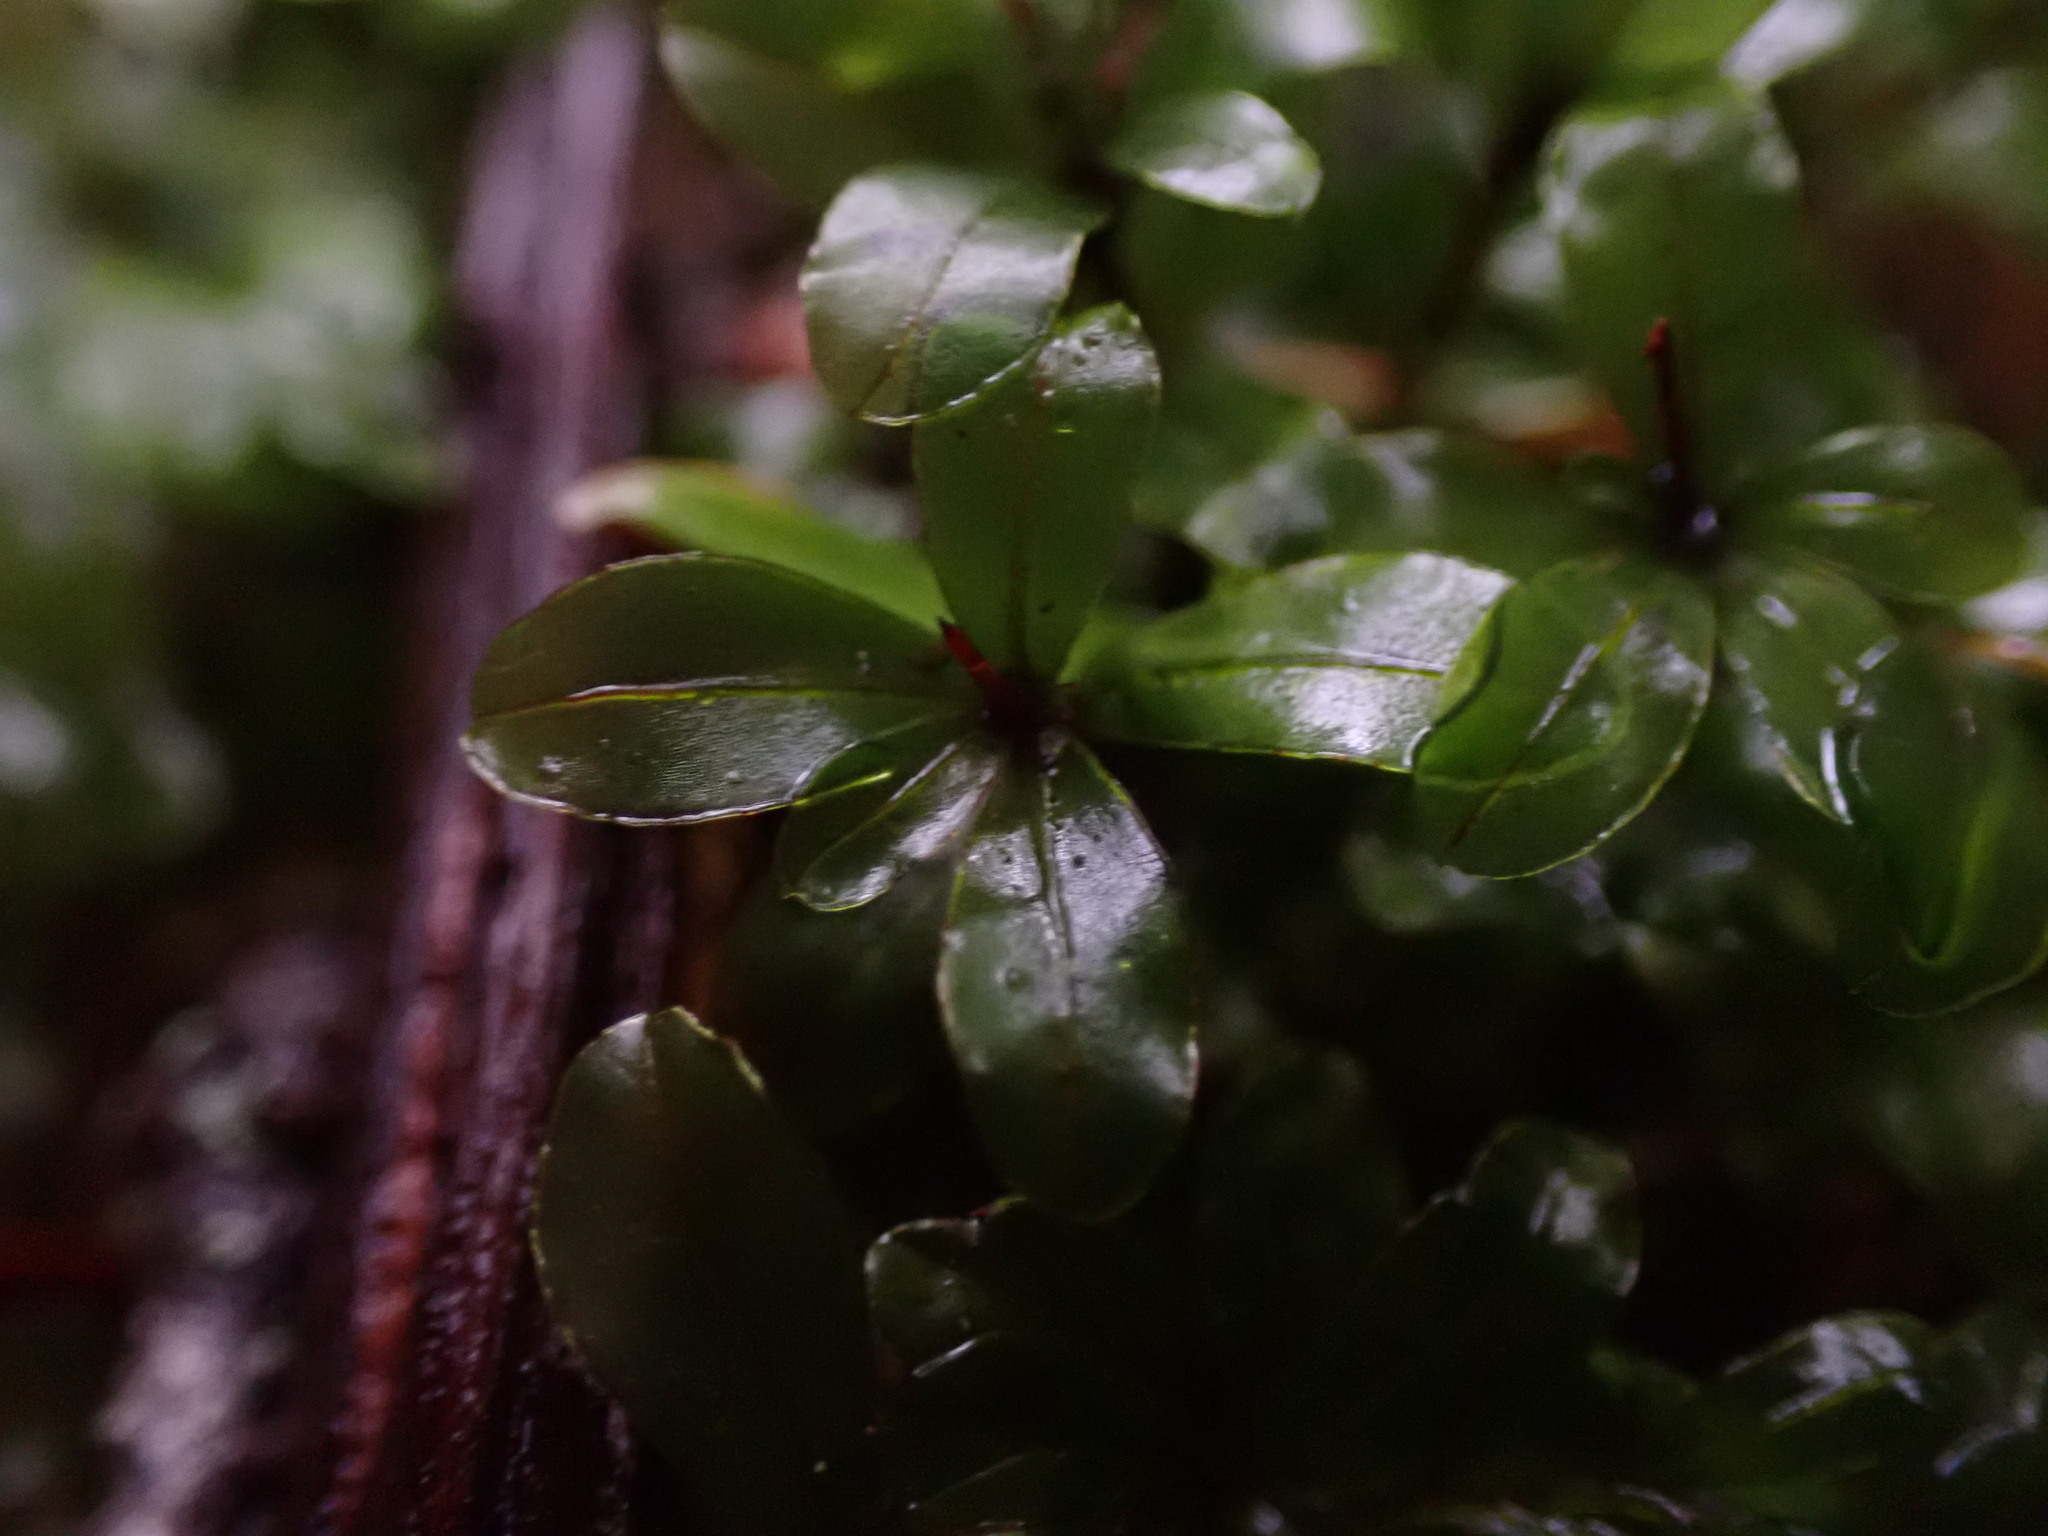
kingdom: Plantae
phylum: Bryophyta
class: Bryopsida
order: Bryales
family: Mniaceae
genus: Rhizomnium
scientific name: Rhizomnium glabrescens
